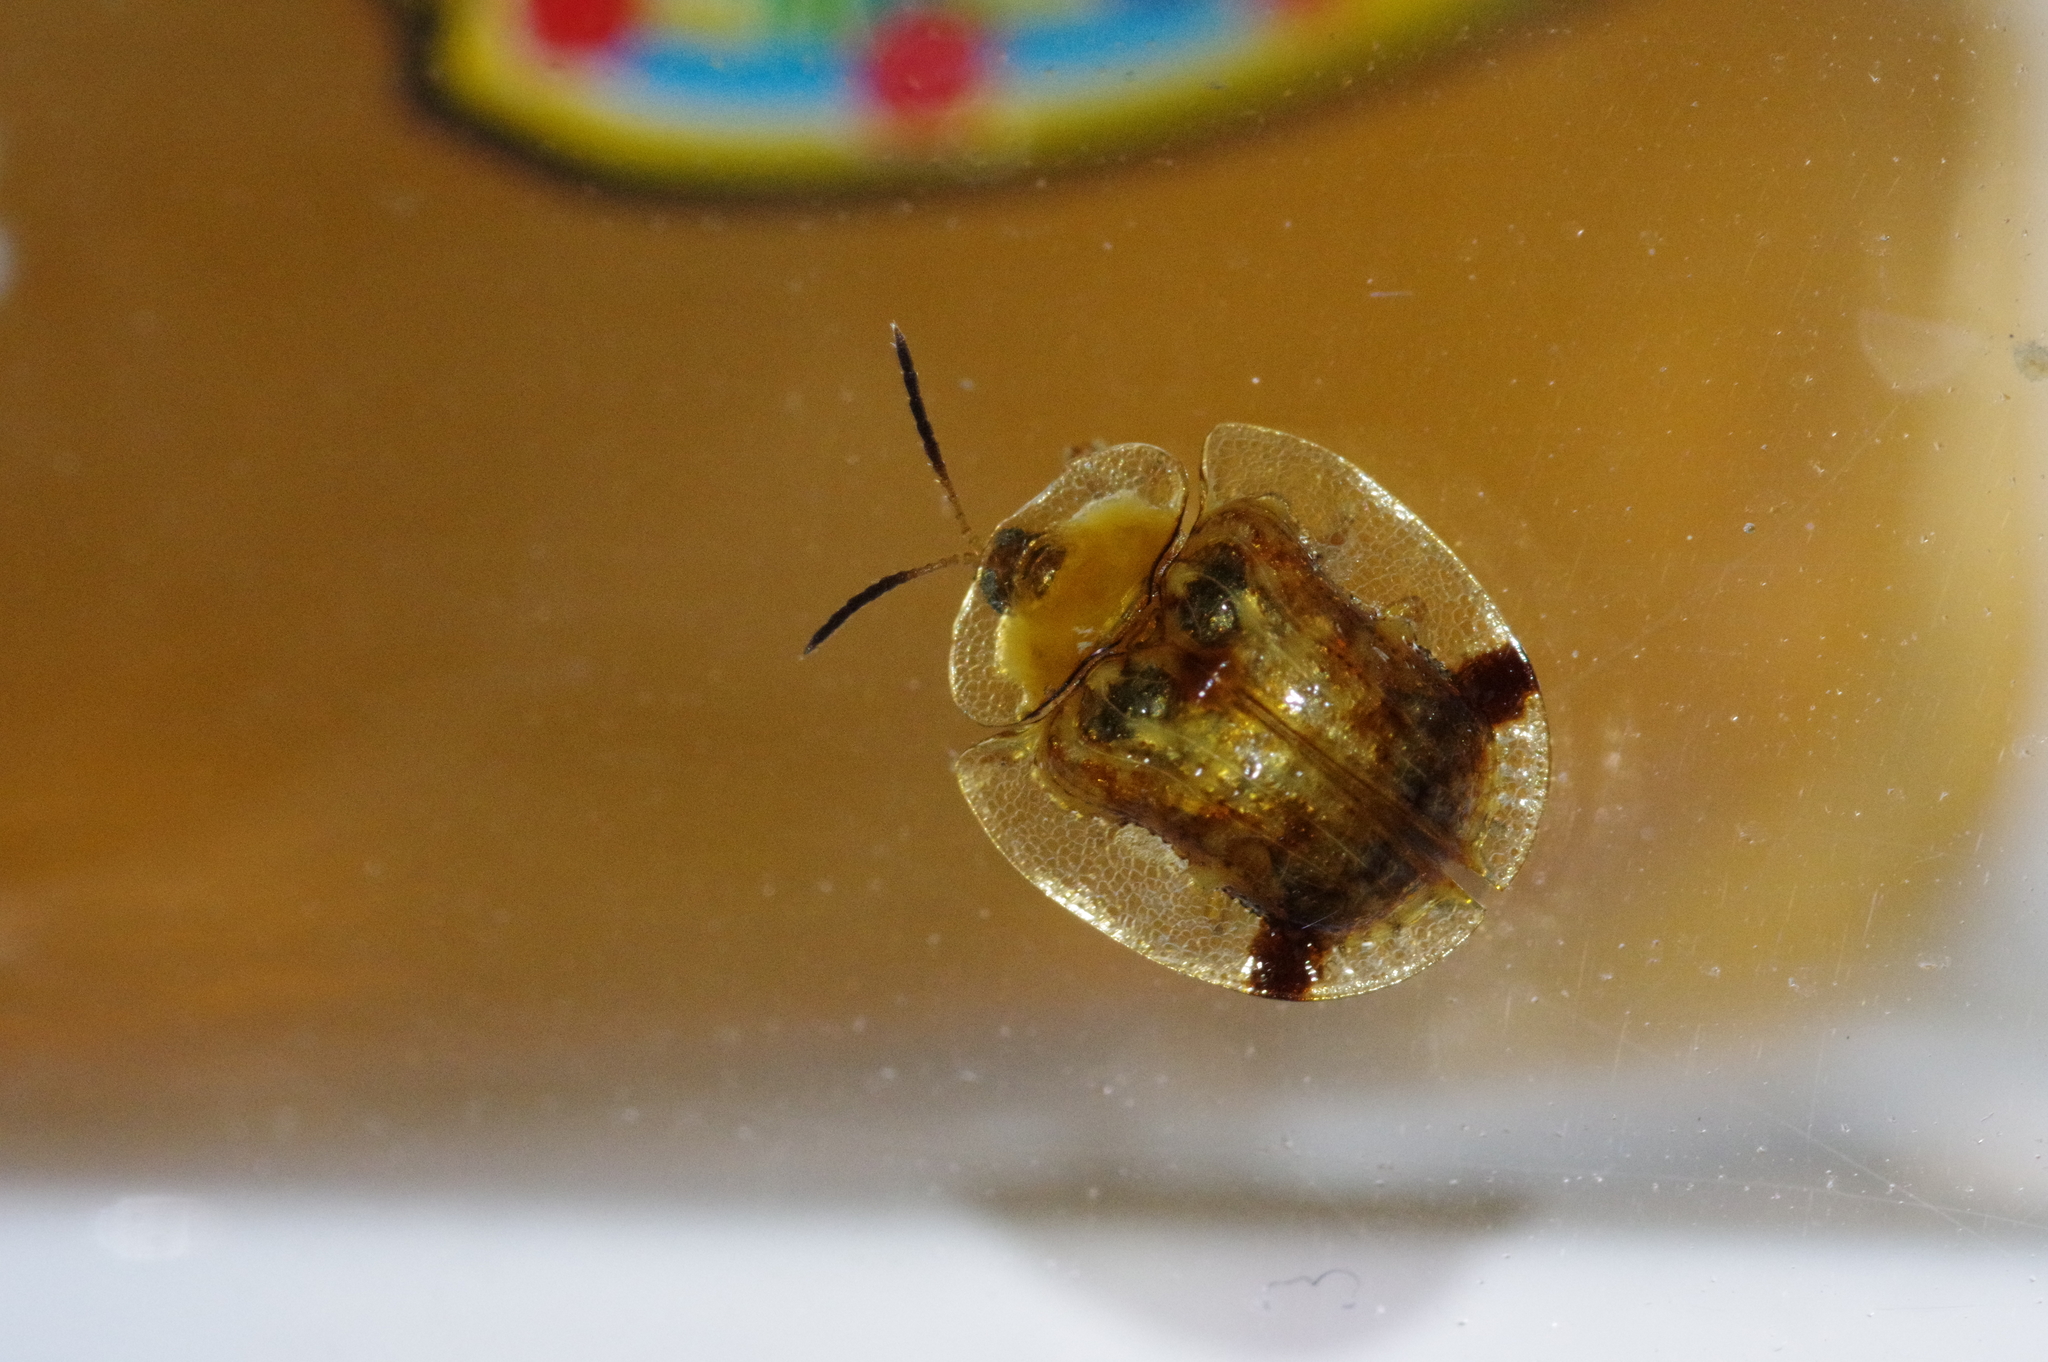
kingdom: Animalia
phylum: Arthropoda
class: Insecta
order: Coleoptera
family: Chrysomelidae
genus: Thlaspida
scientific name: Thlaspida cribrosa
